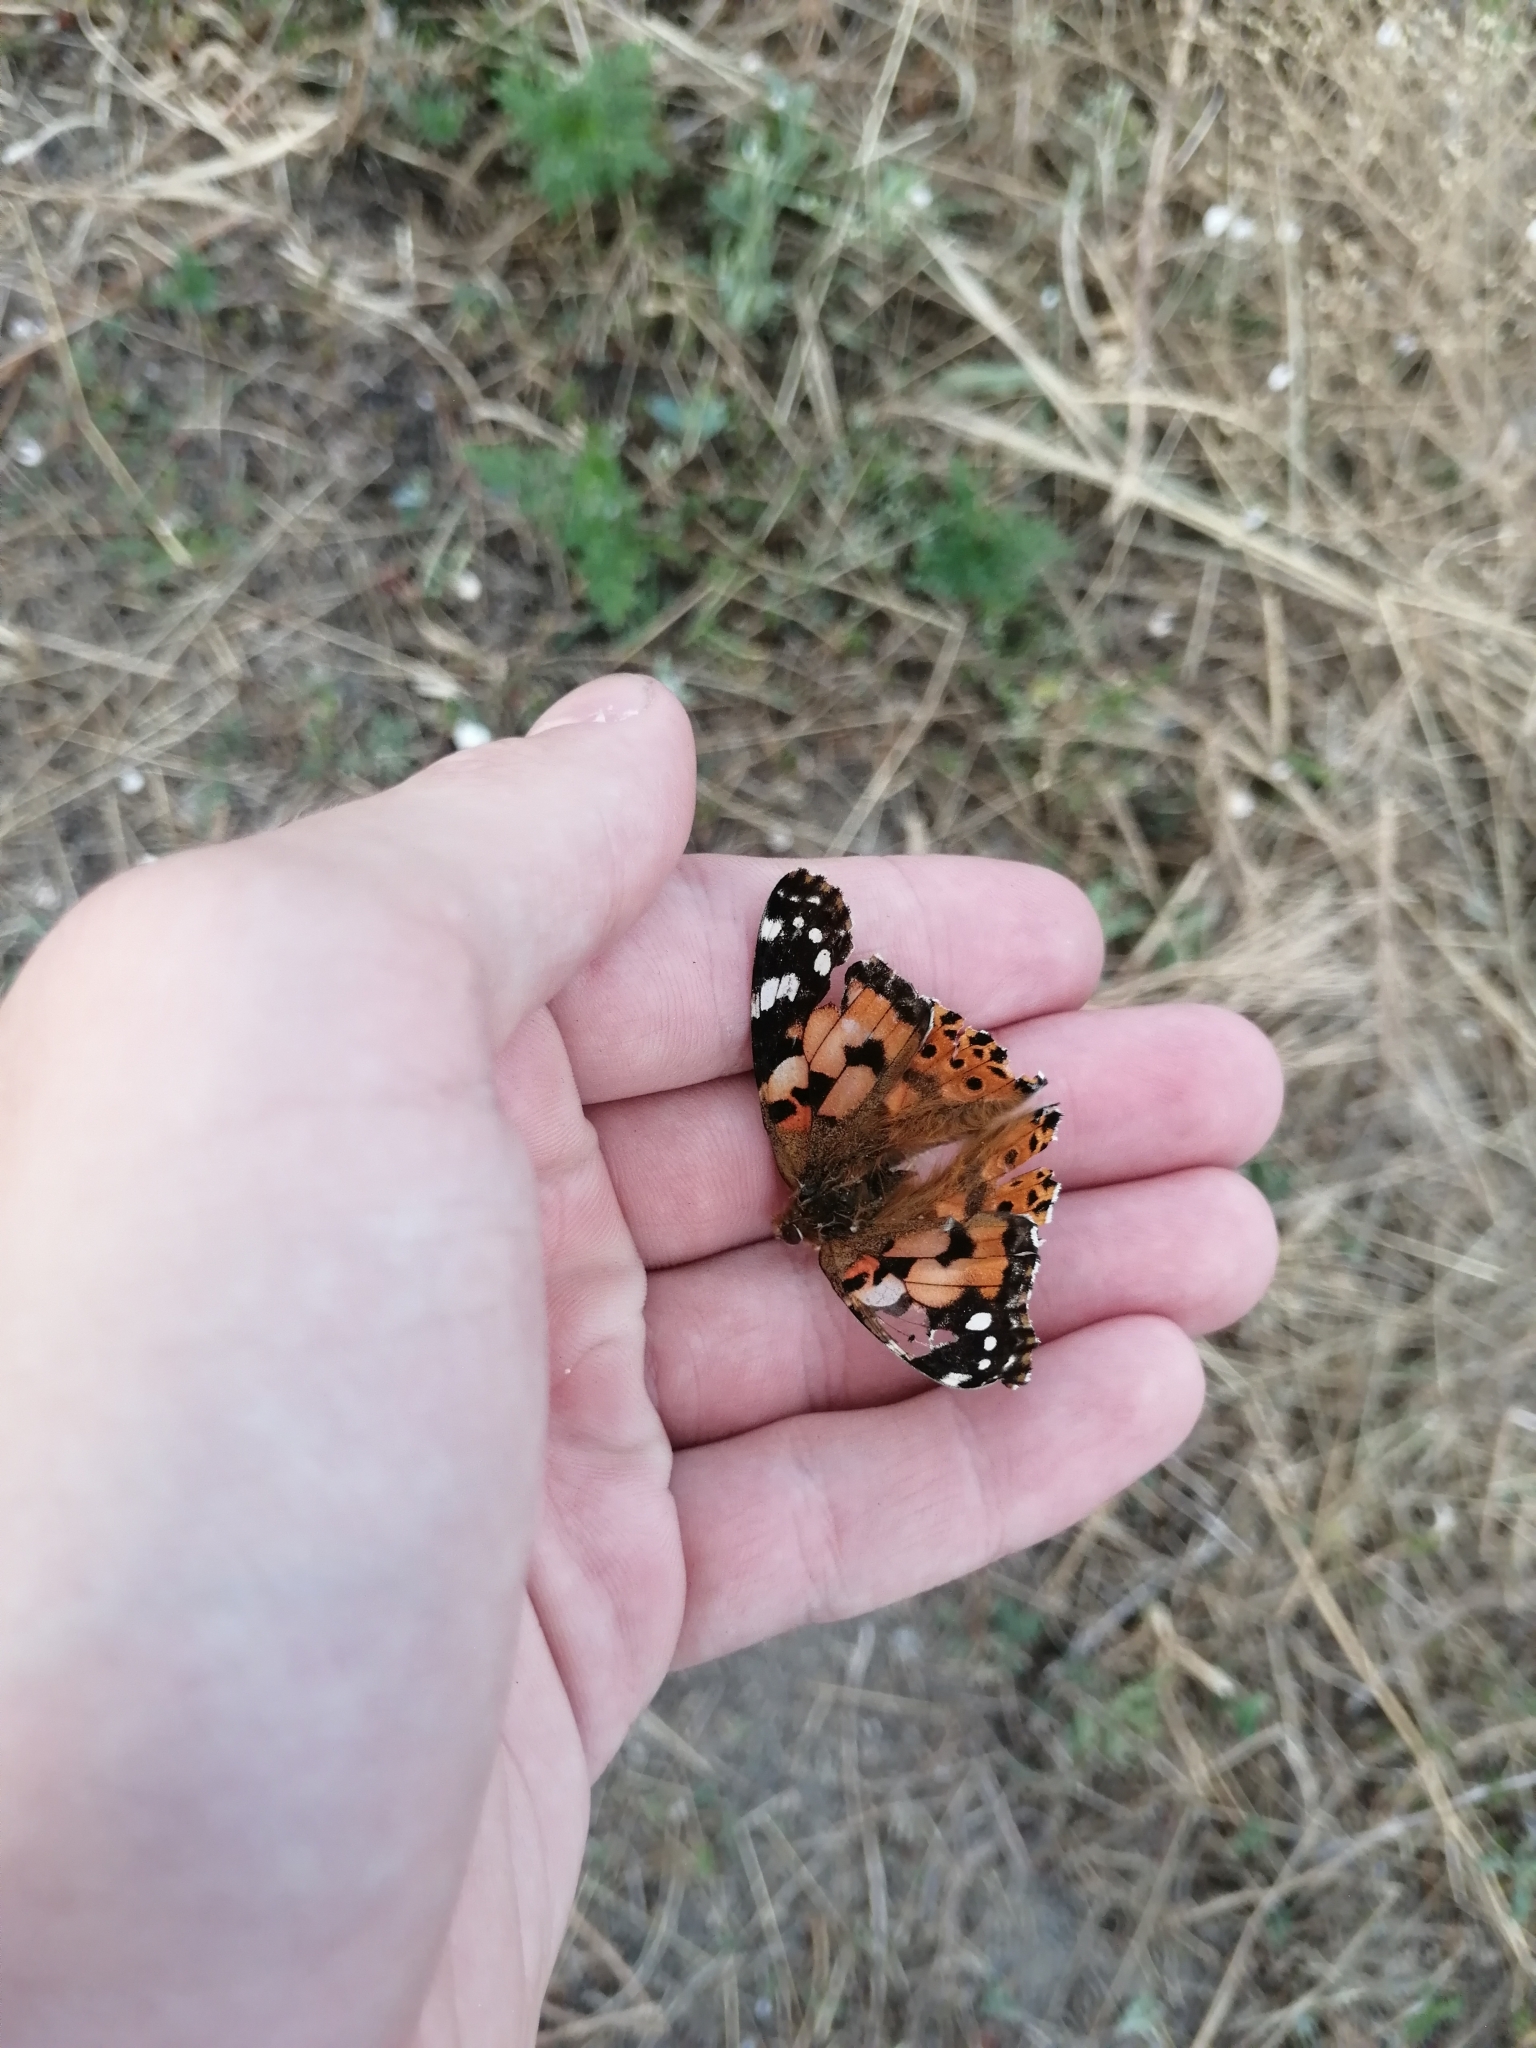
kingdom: Animalia
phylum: Arthropoda
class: Insecta
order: Lepidoptera
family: Nymphalidae
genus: Vanessa
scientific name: Vanessa cardui
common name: Painted lady
